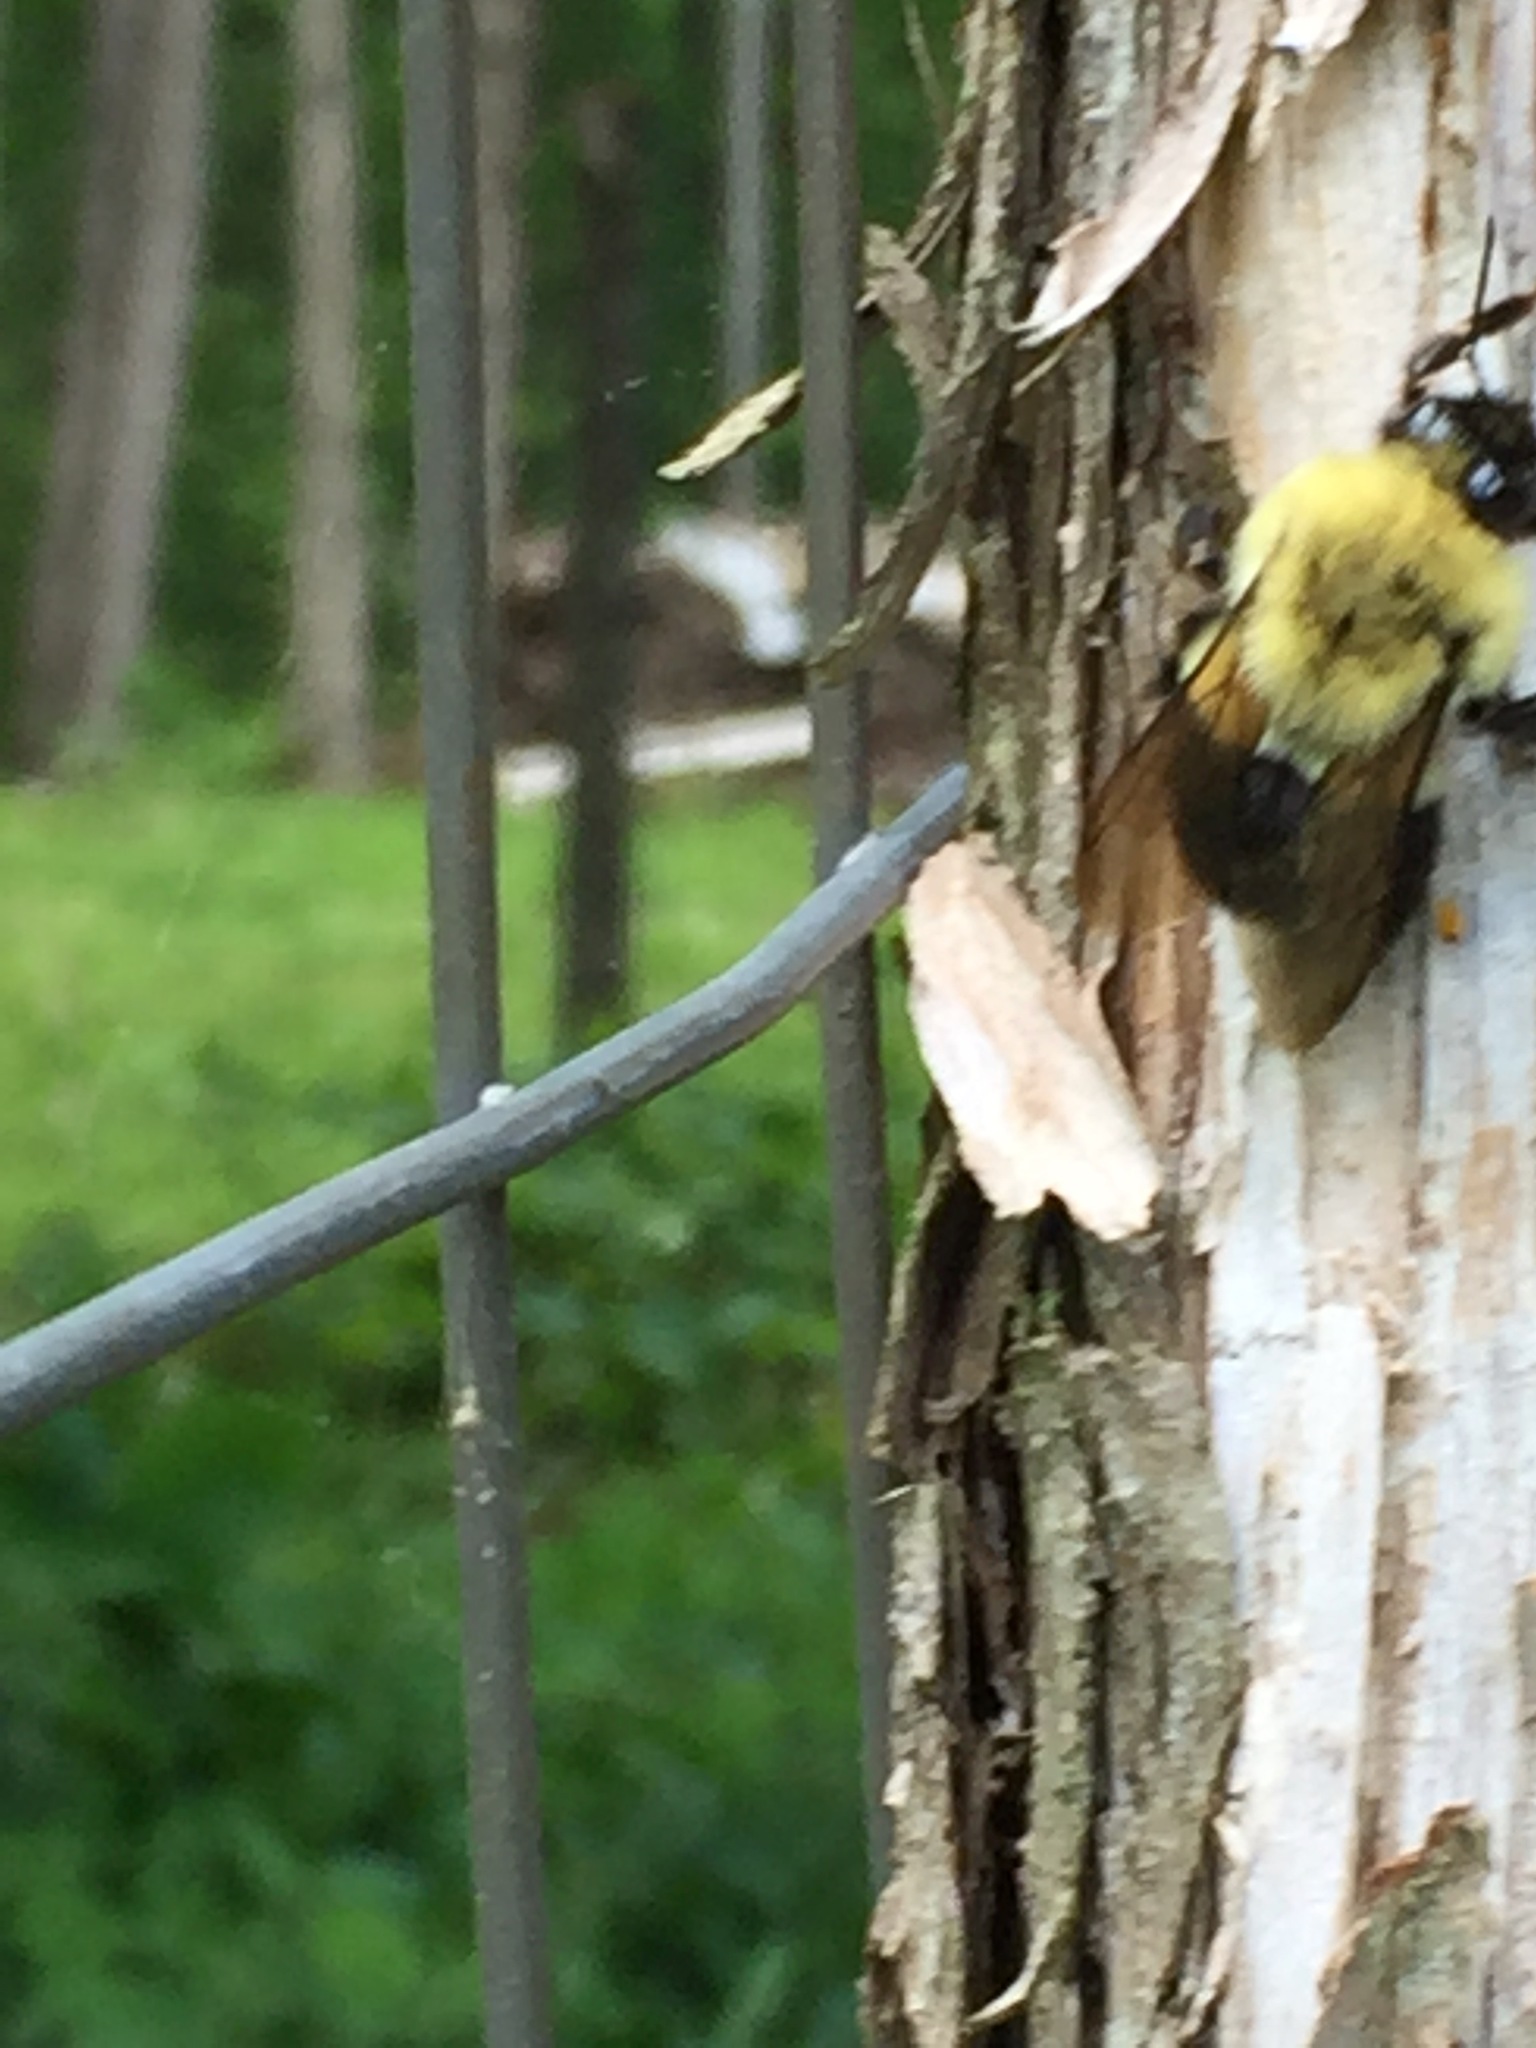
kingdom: Animalia
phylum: Arthropoda
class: Insecta
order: Hymenoptera
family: Apidae
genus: Bombus
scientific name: Bombus impatiens
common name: Common eastern bumble bee
